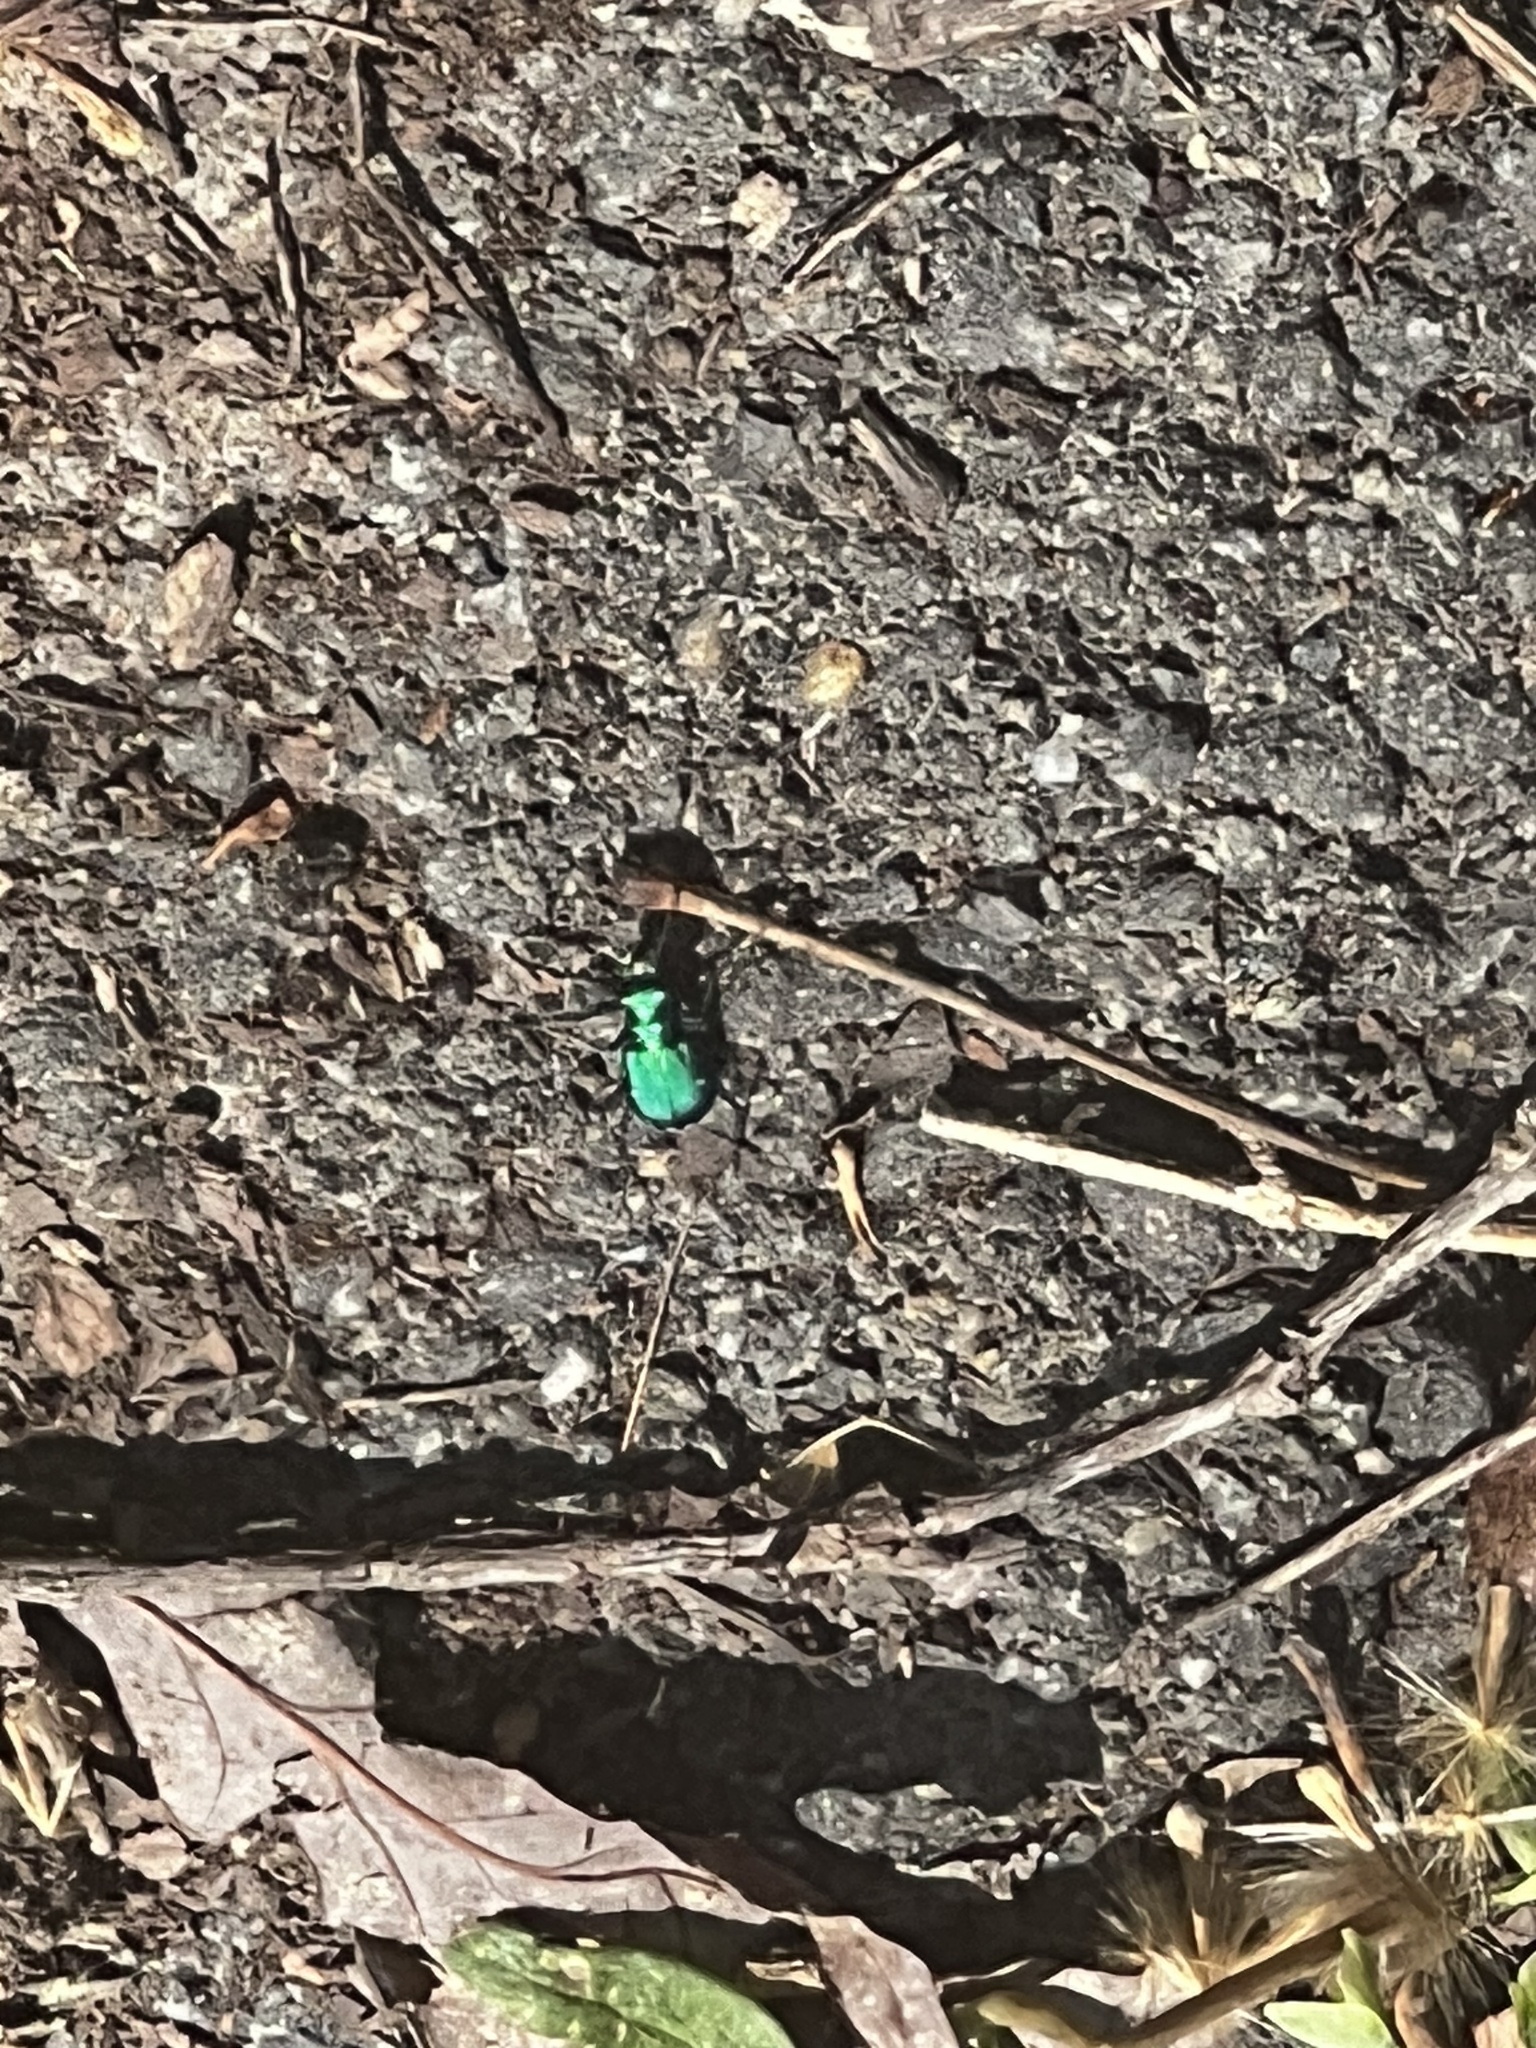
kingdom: Animalia
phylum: Arthropoda
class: Insecta
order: Coleoptera
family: Carabidae
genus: Cicindela
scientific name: Cicindela sexguttata
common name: Six-spotted tiger beetle
